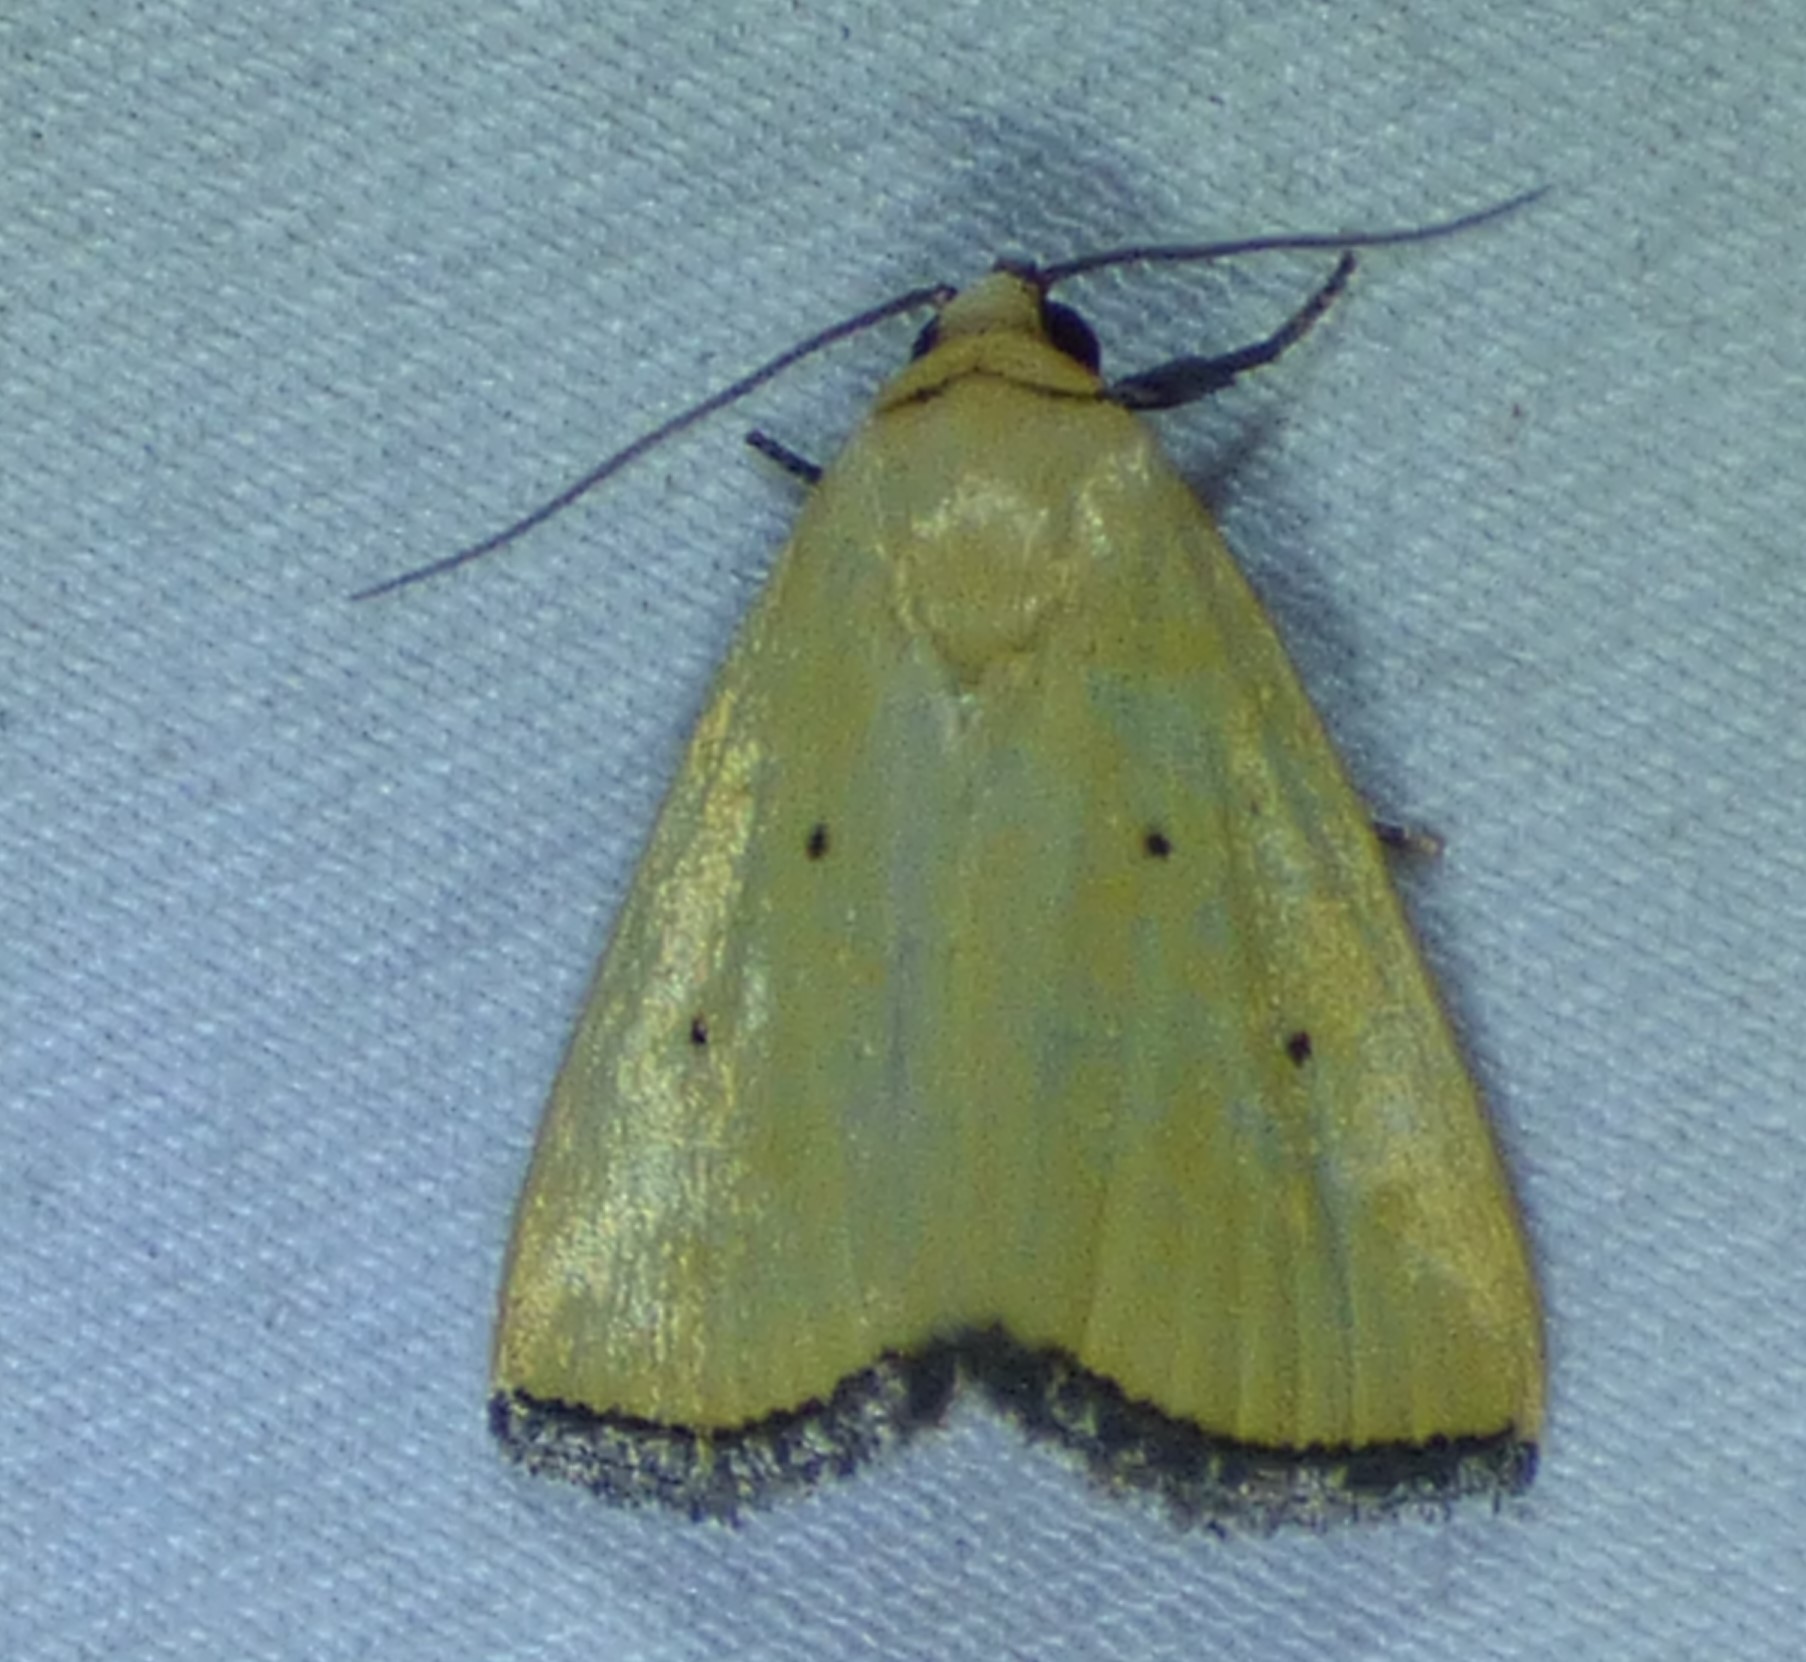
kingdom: Animalia
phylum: Arthropoda
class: Insecta
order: Lepidoptera
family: Noctuidae
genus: Marimatha
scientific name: Marimatha nigrofimbria
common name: Black-bordered lemon moth
